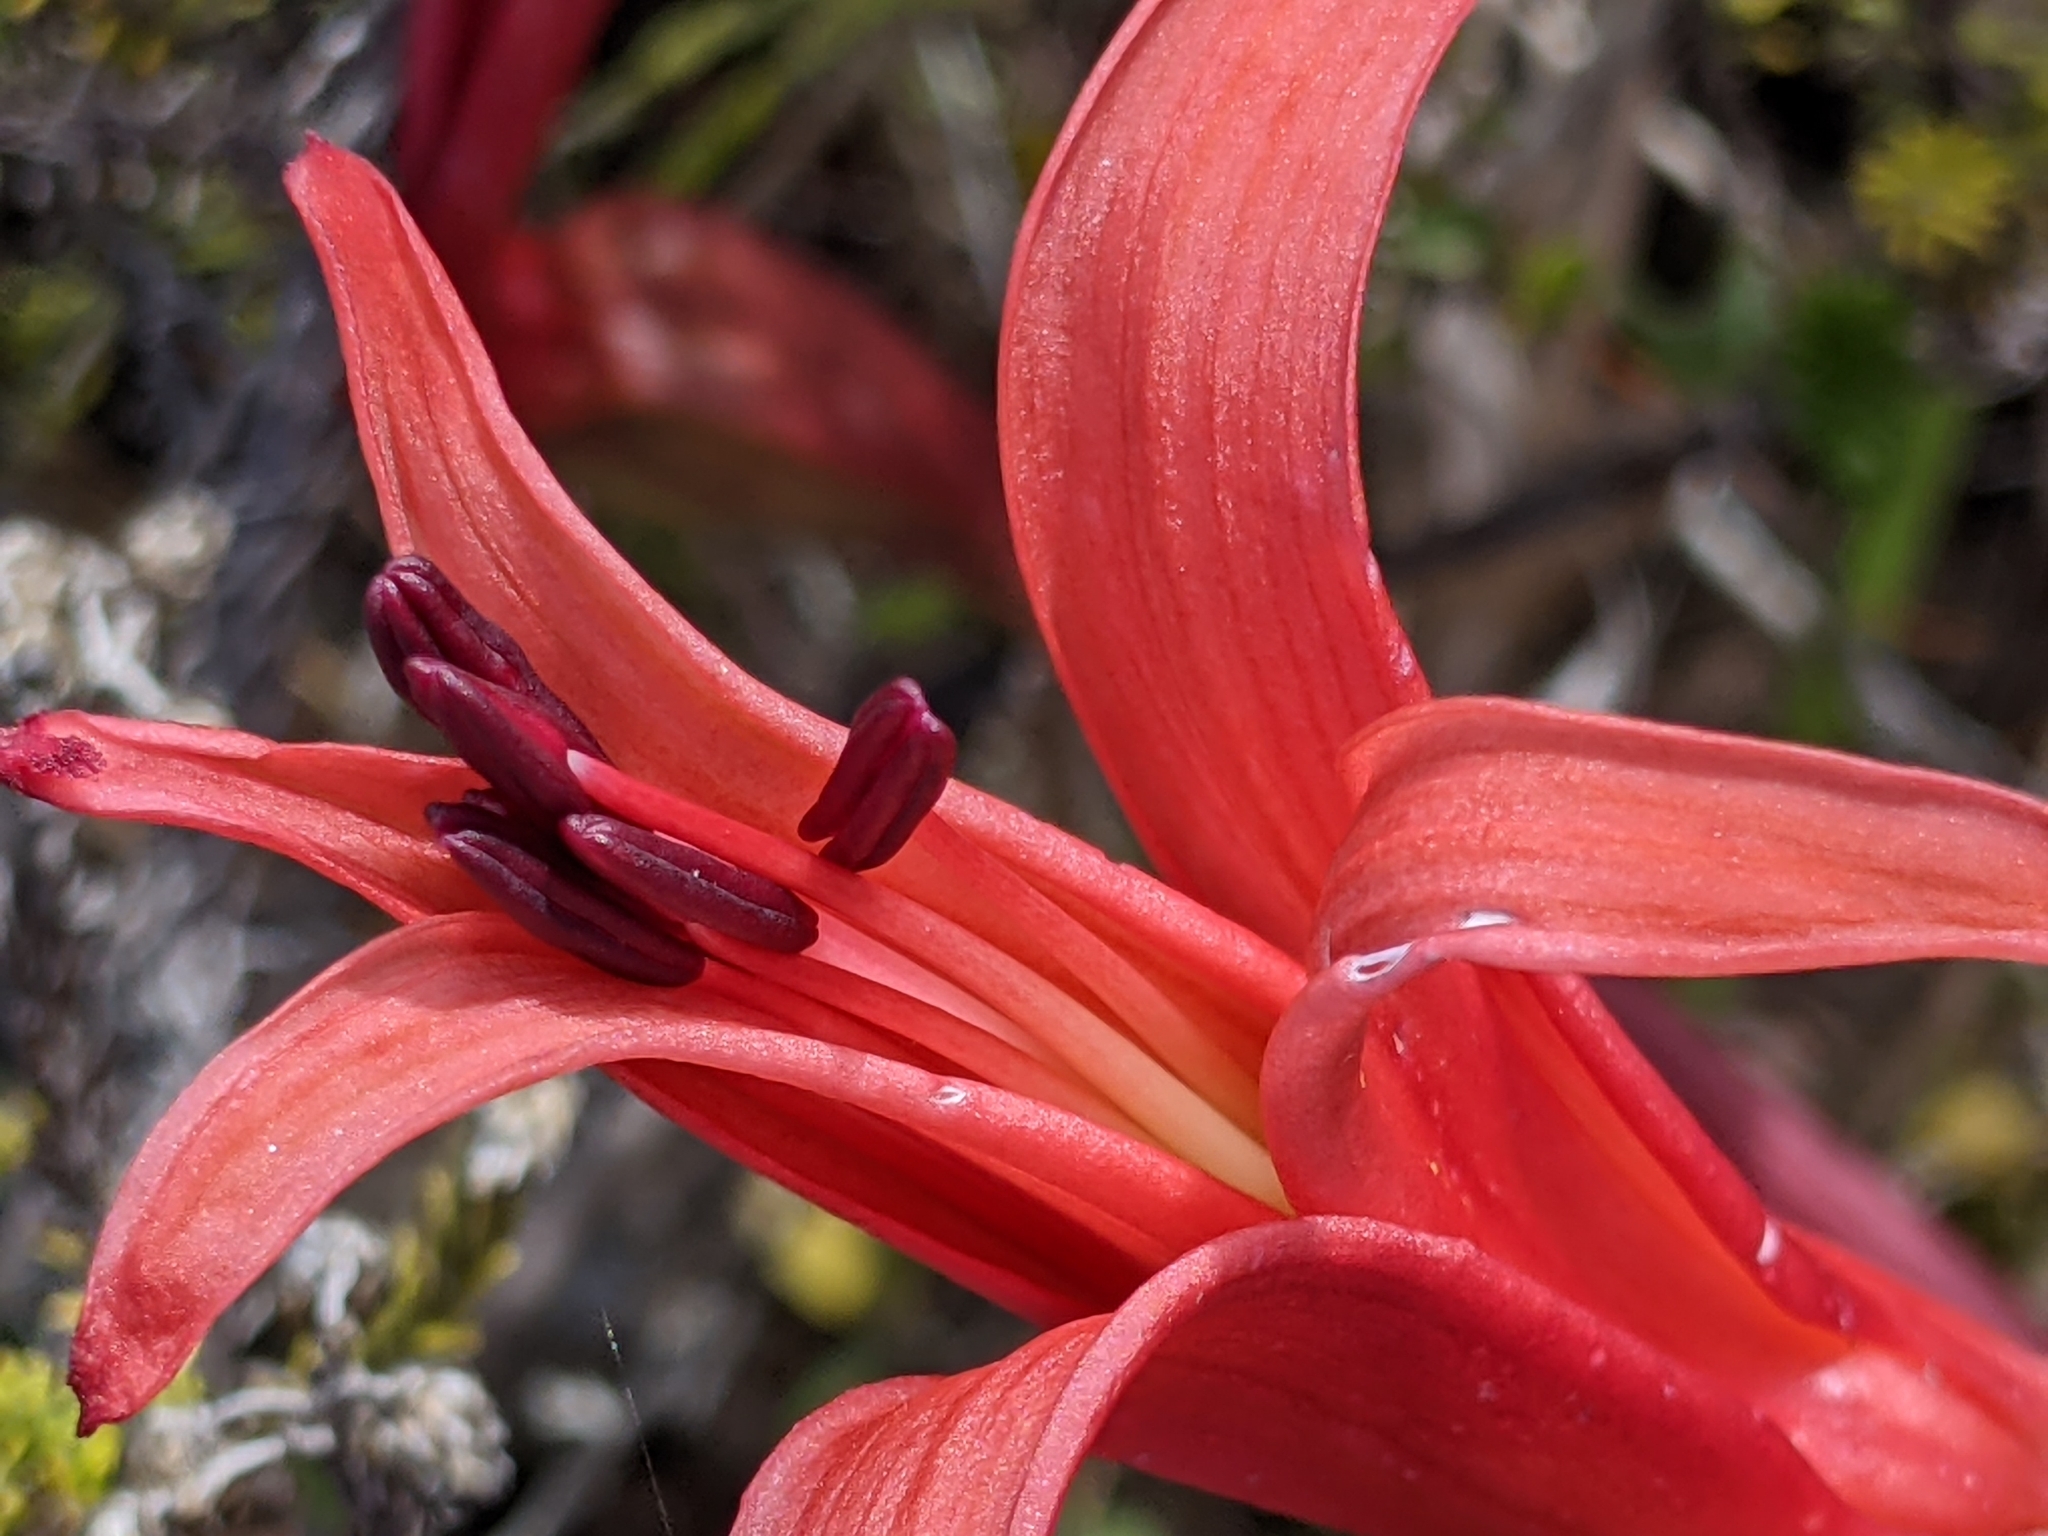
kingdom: Plantae
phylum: Tracheophyta
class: Liliopsida
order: Asparagales
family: Amaryllidaceae
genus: Brunsvigia
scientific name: Brunsvigia orientalis
